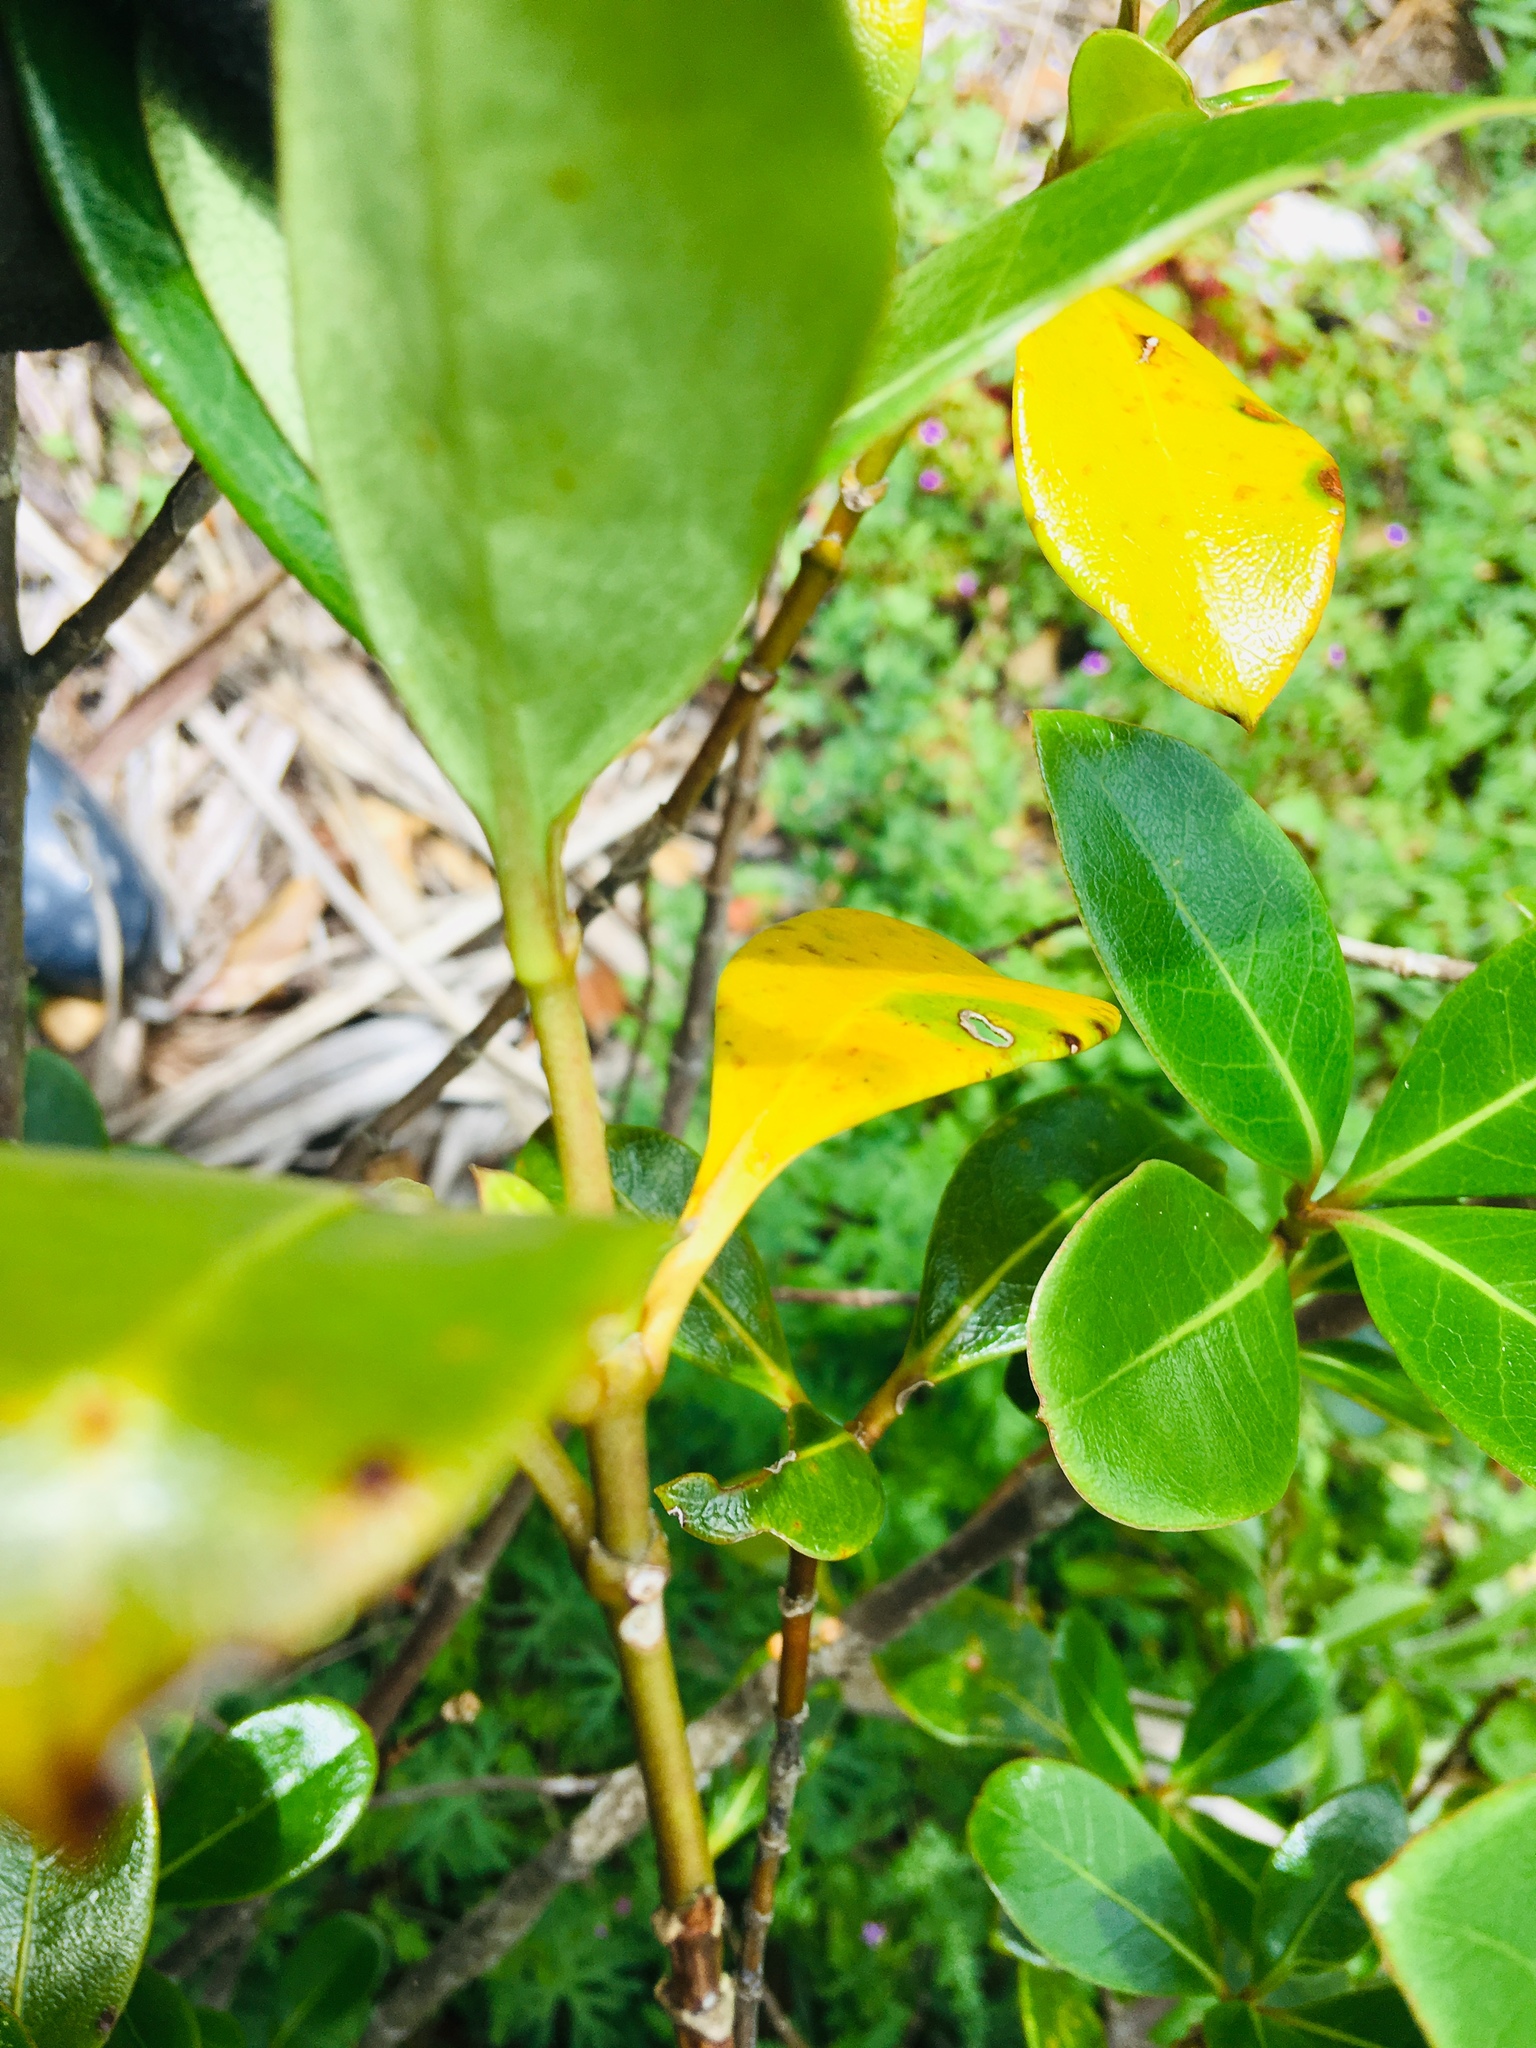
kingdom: Plantae
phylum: Tracheophyta
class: Magnoliopsida
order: Gentianales
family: Rubiaceae
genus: Coprosma
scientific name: Coprosma lucida
